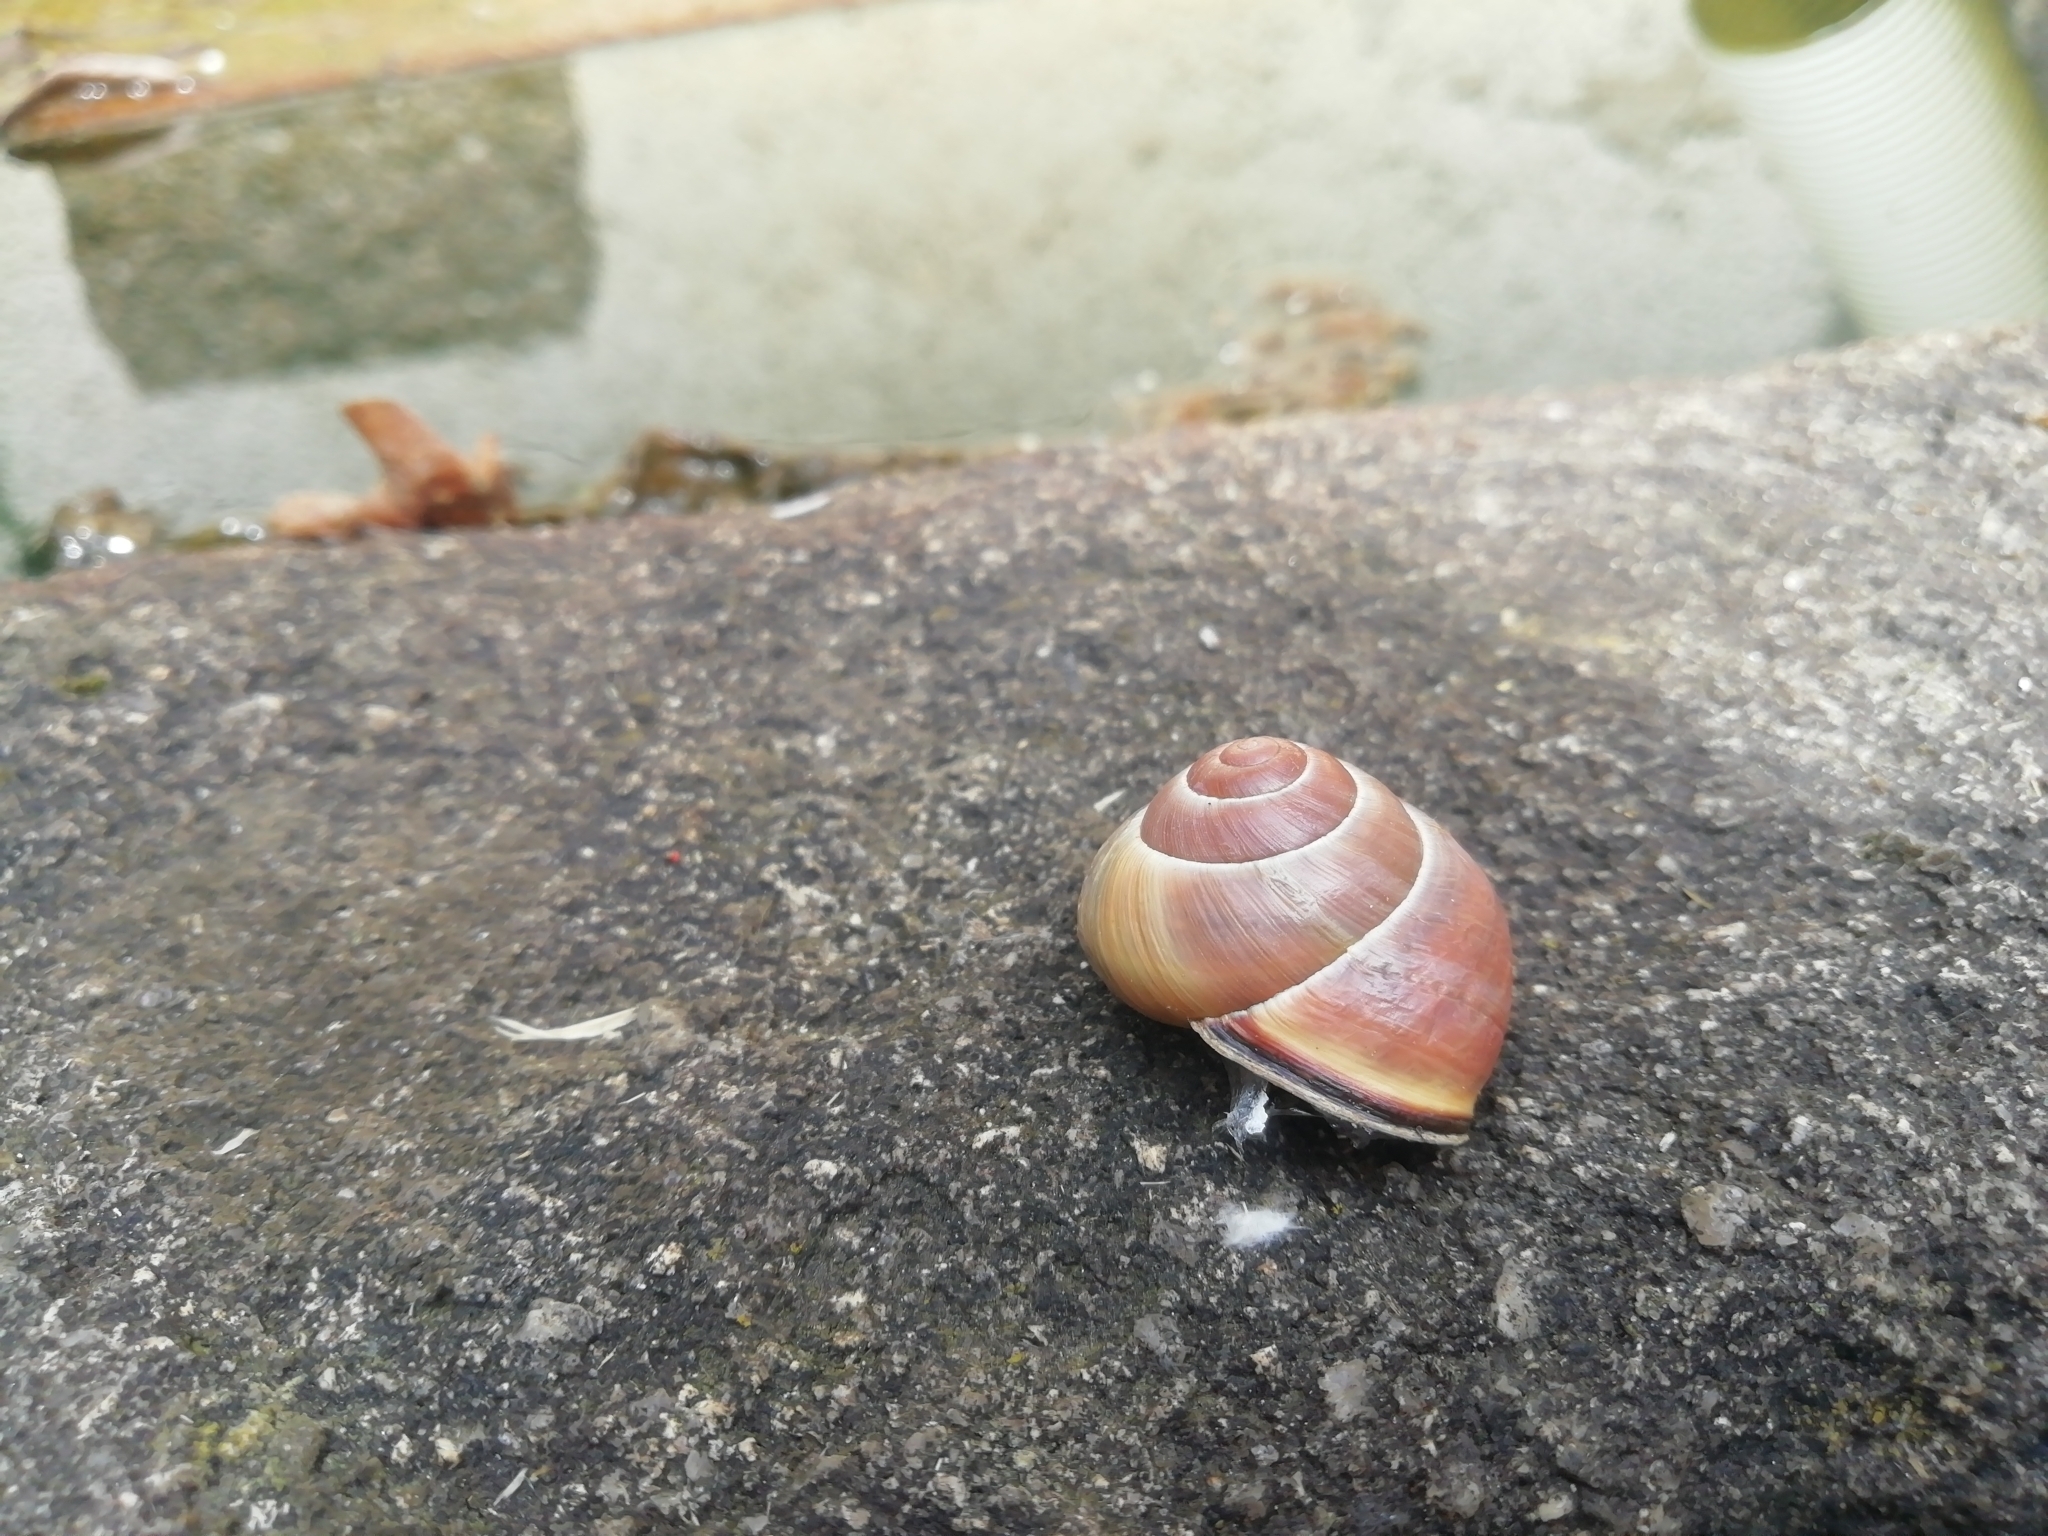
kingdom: Animalia
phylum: Mollusca
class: Gastropoda
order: Stylommatophora
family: Helicidae
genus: Cepaea
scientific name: Cepaea nemoralis
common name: Grovesnail
